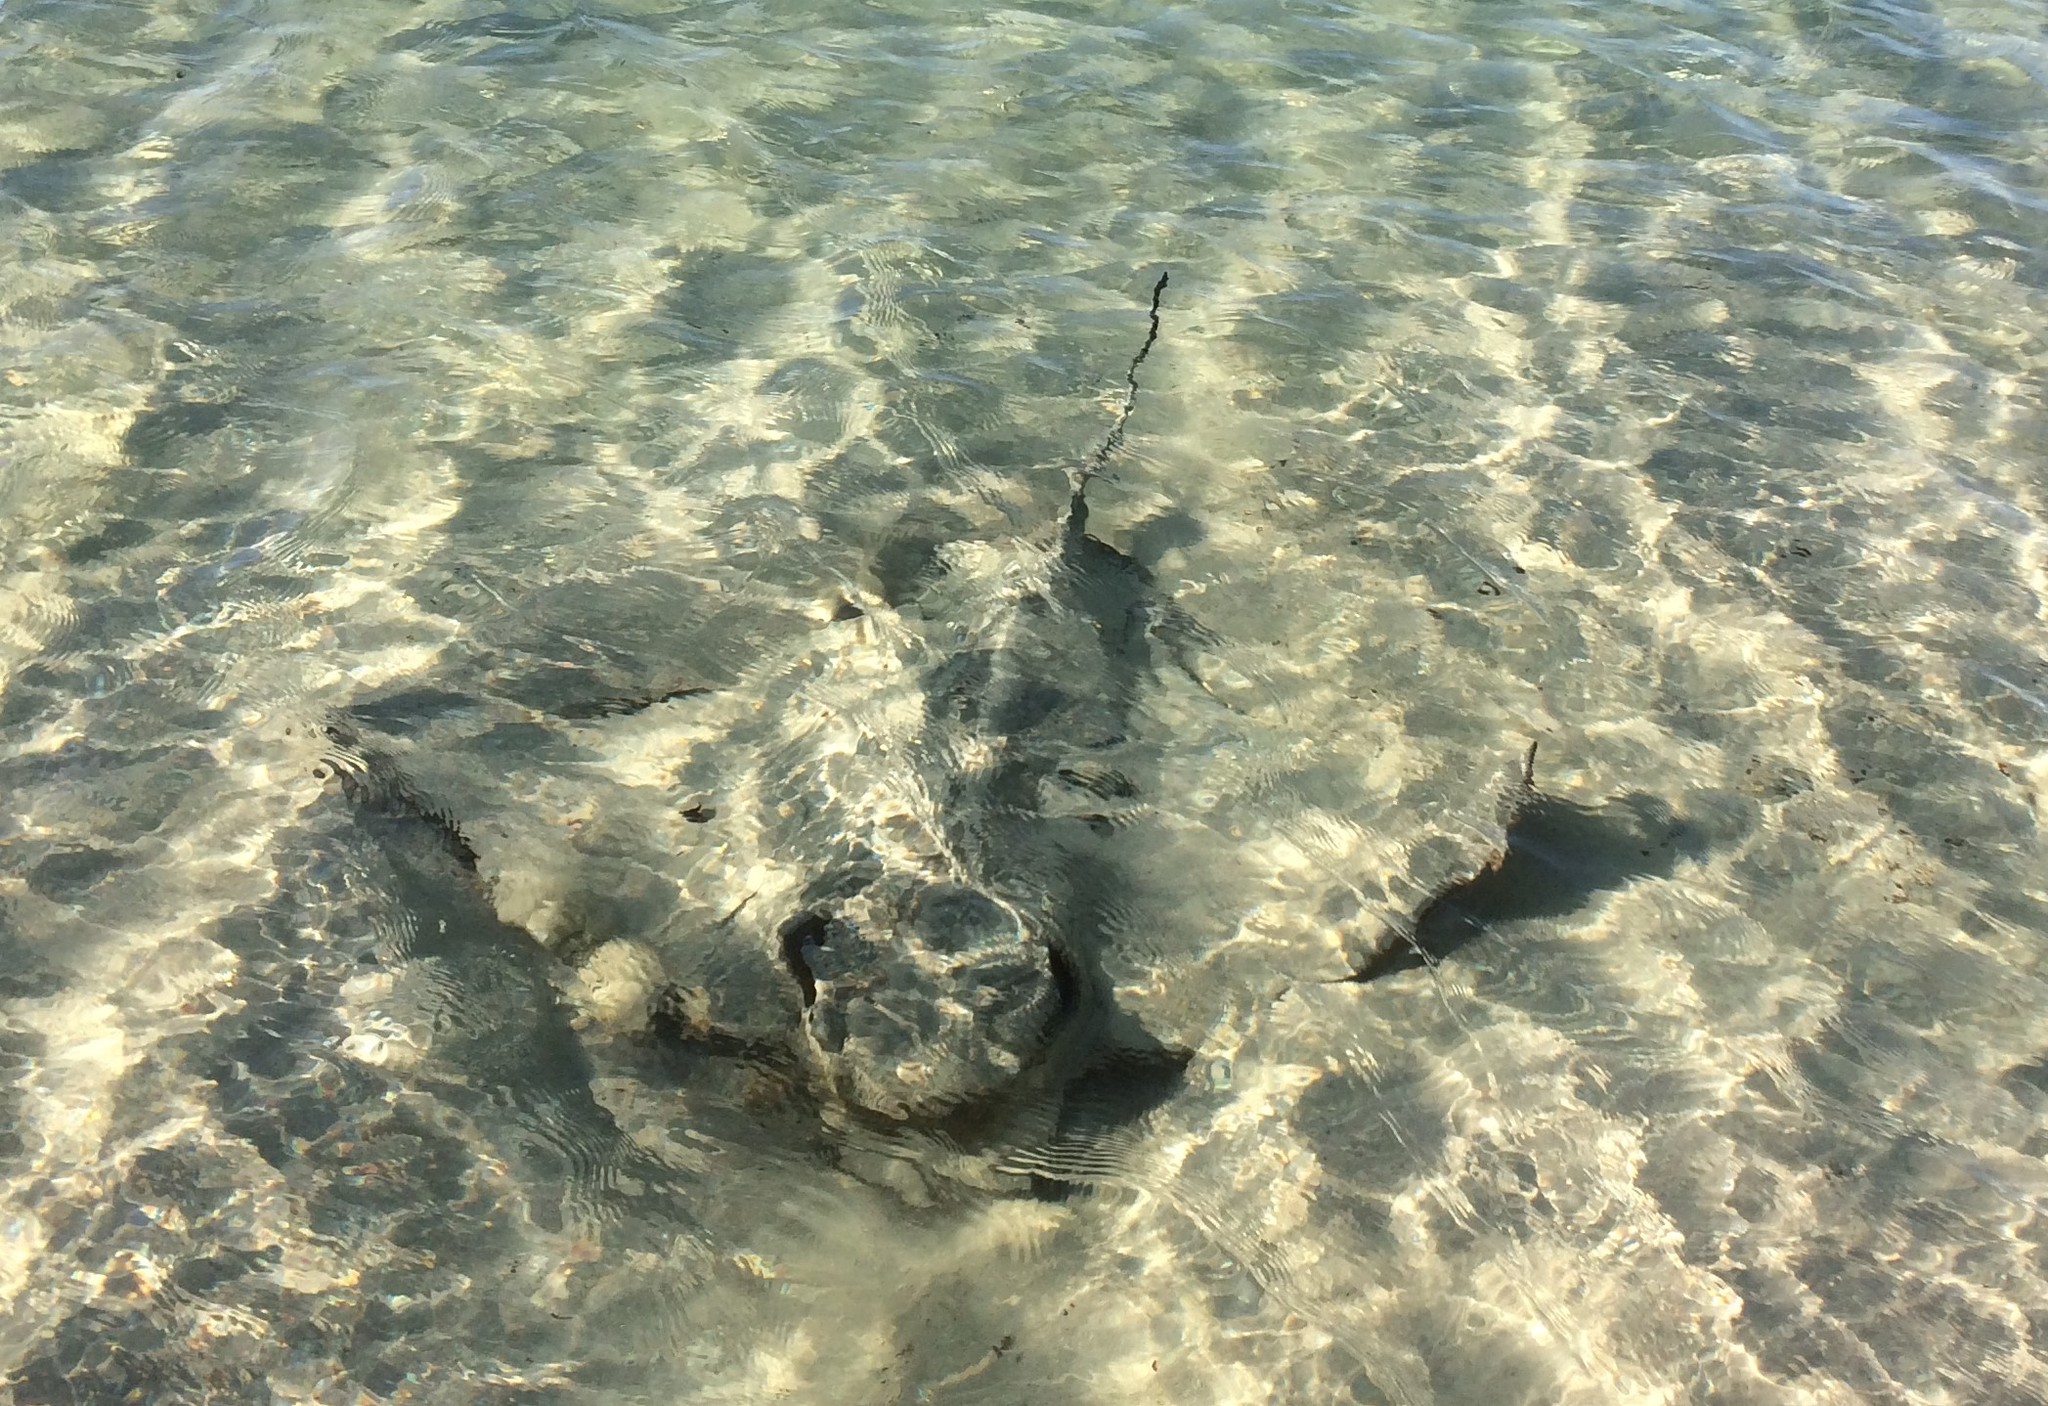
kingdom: Animalia
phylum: Chordata
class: Elasmobranchii
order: Myliobatiformes
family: Myliobatidae
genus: Myliobatis
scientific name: Myliobatis tenuicaudatus
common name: Eagle ray
